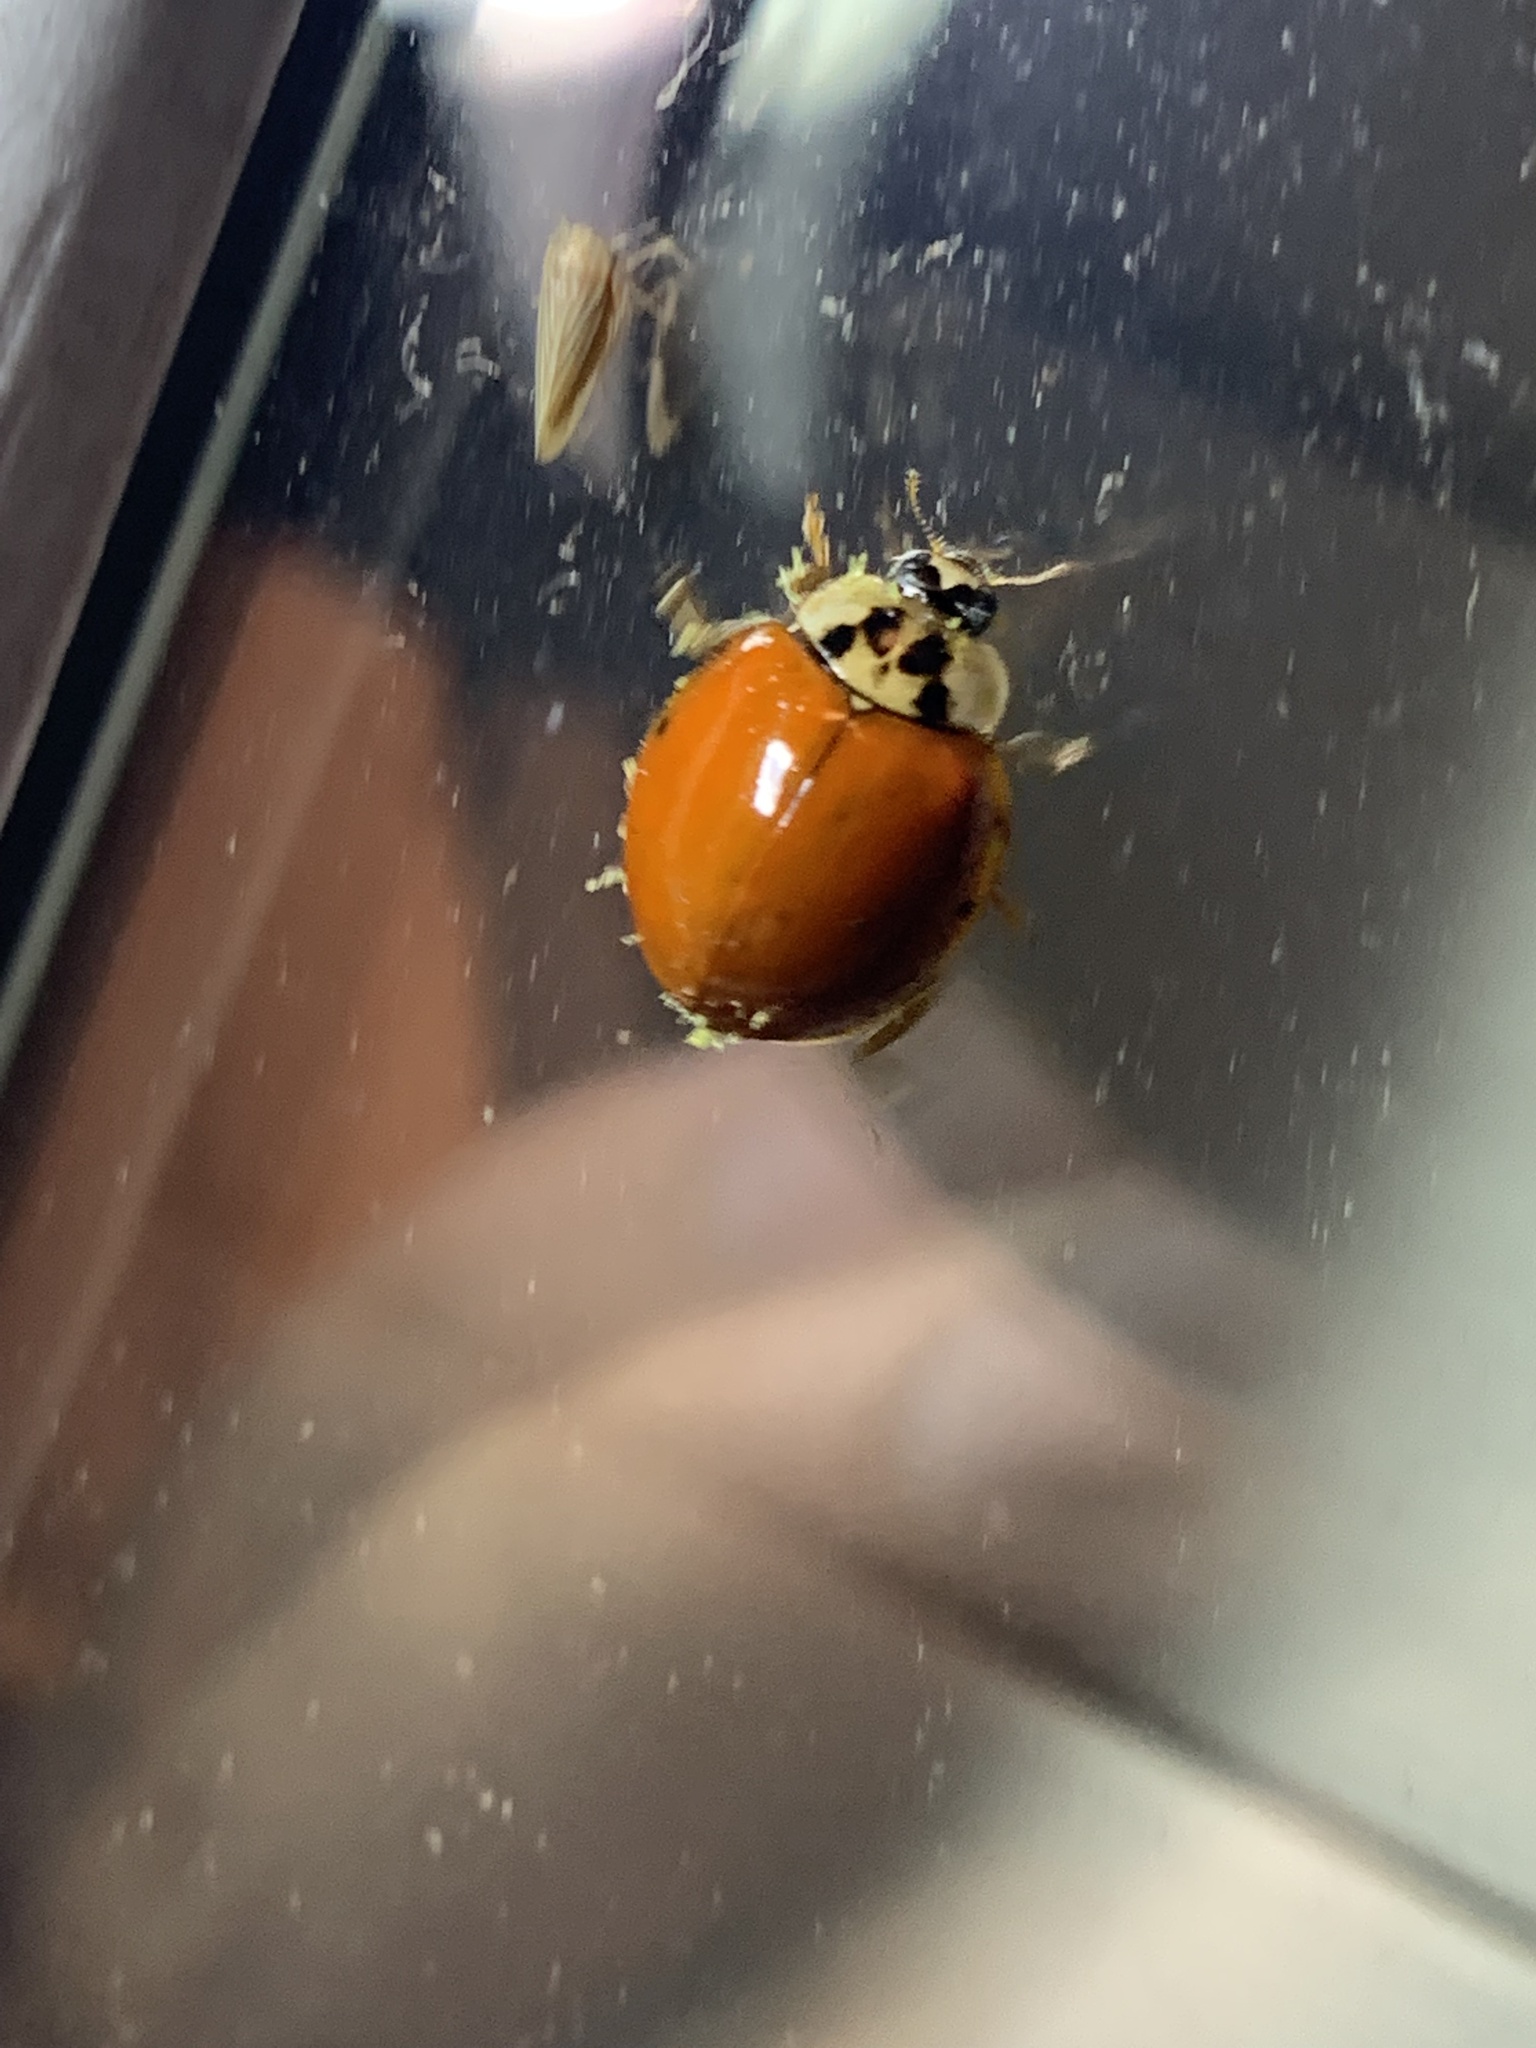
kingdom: Fungi
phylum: Ascomycota
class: Laboulbeniomycetes
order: Laboulbeniales
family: Laboulbeniaceae
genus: Hesperomyces
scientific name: Hesperomyces harmoniae
